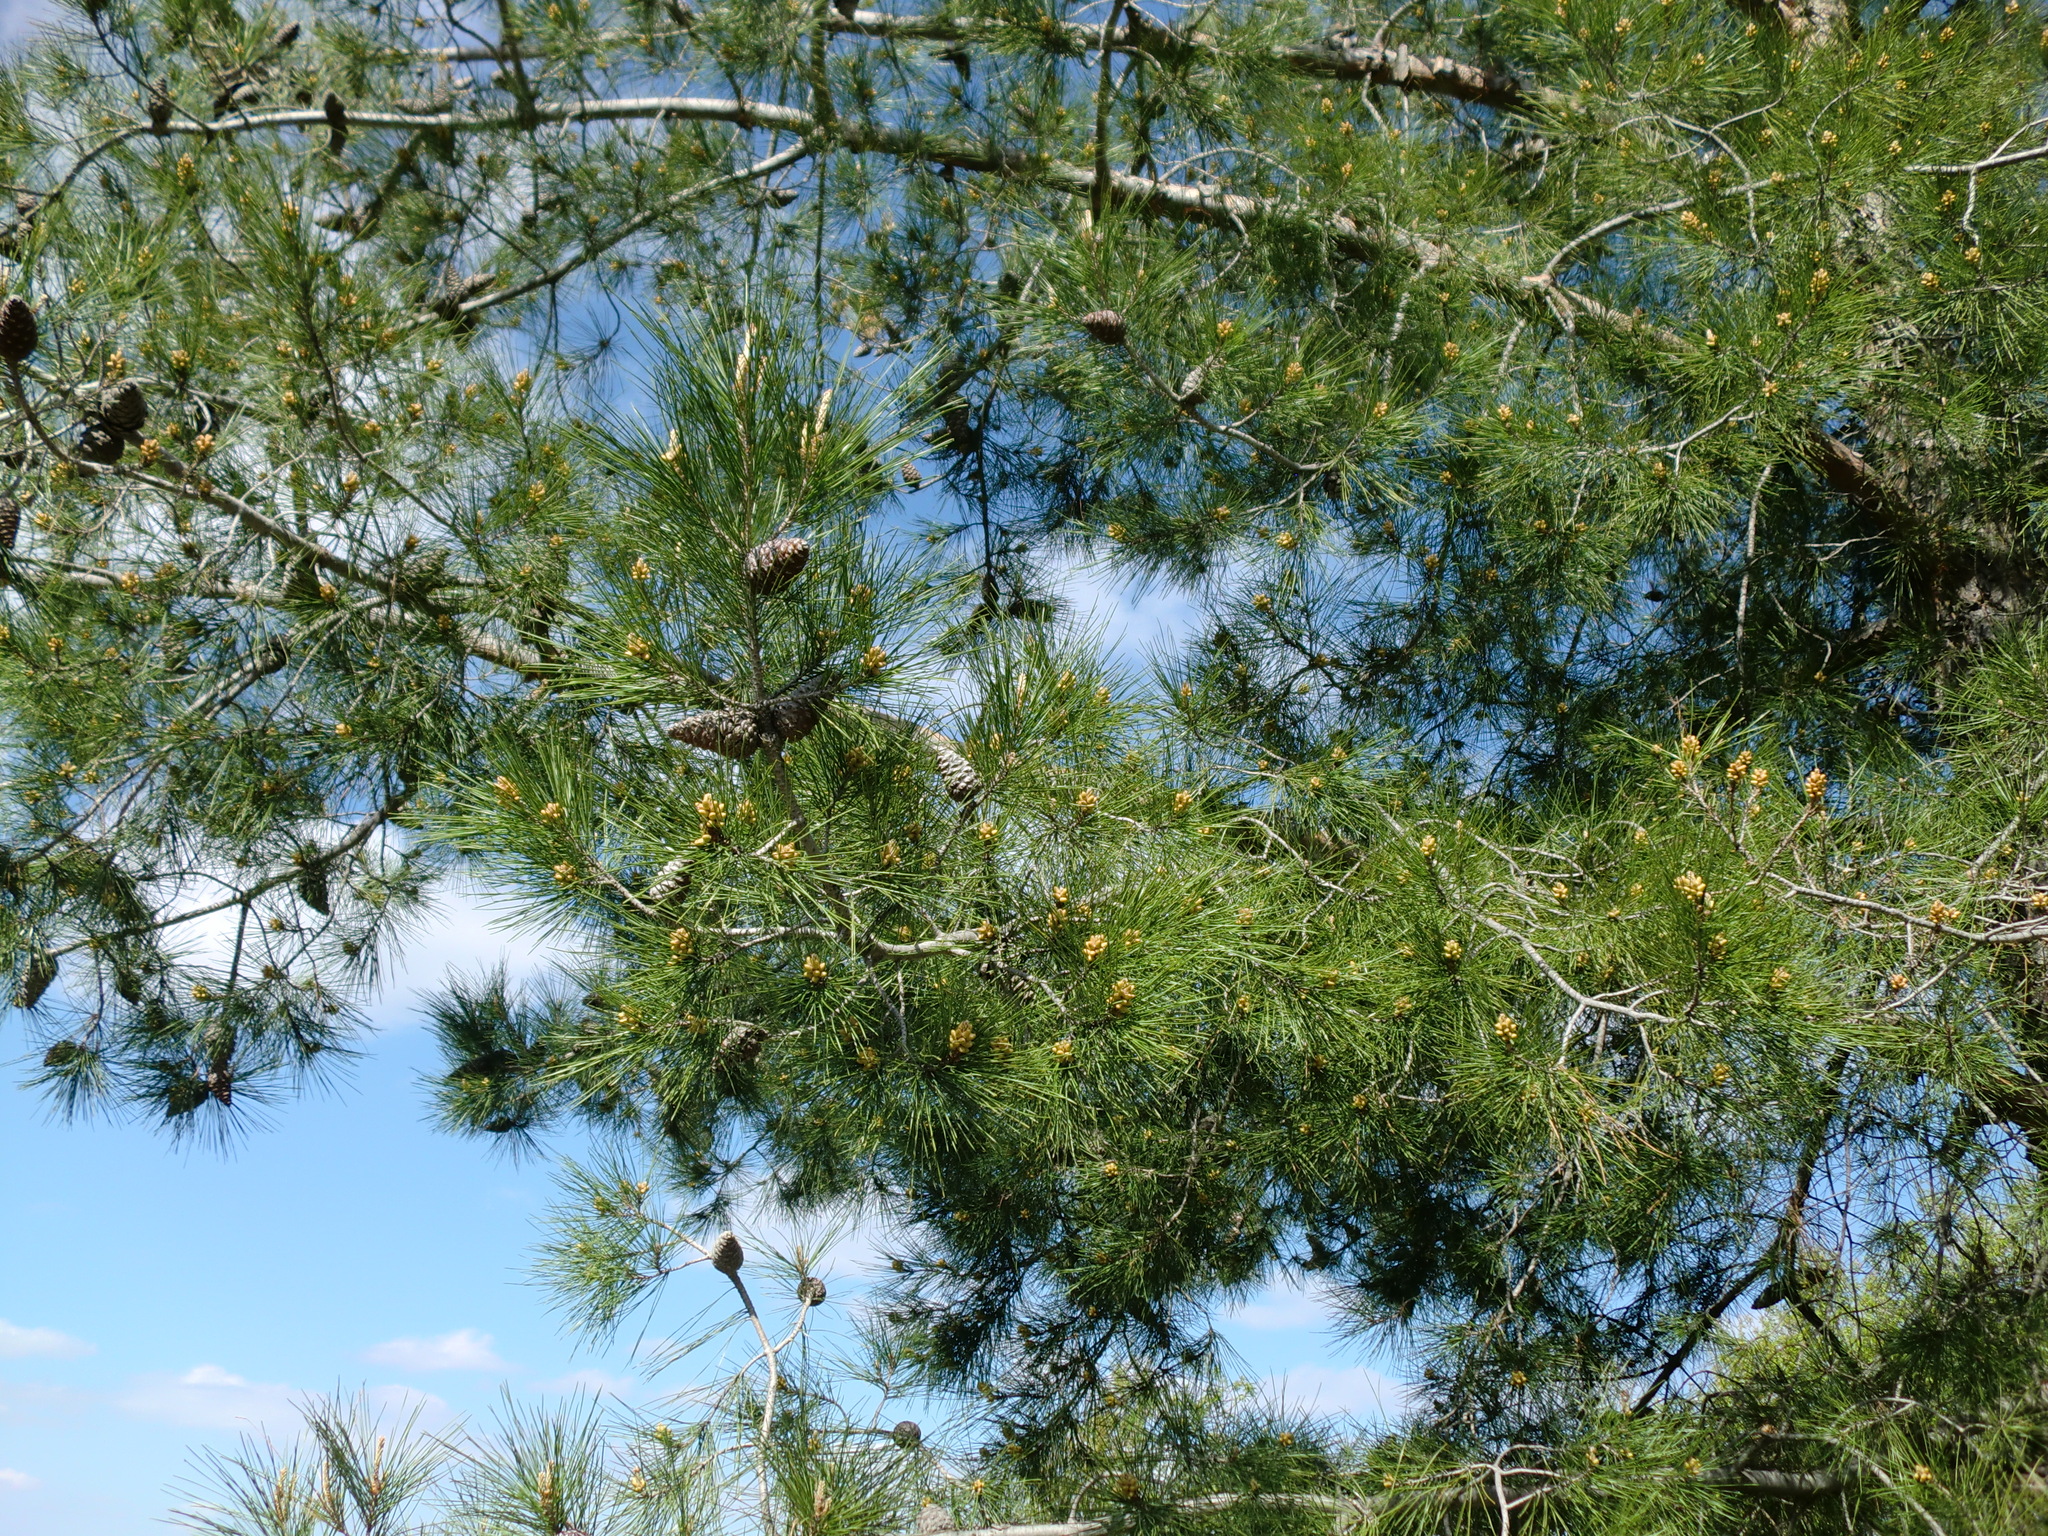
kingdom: Plantae
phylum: Tracheophyta
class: Pinopsida
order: Pinales
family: Pinaceae
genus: Pinus
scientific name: Pinus brutia
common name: Turkish pine
